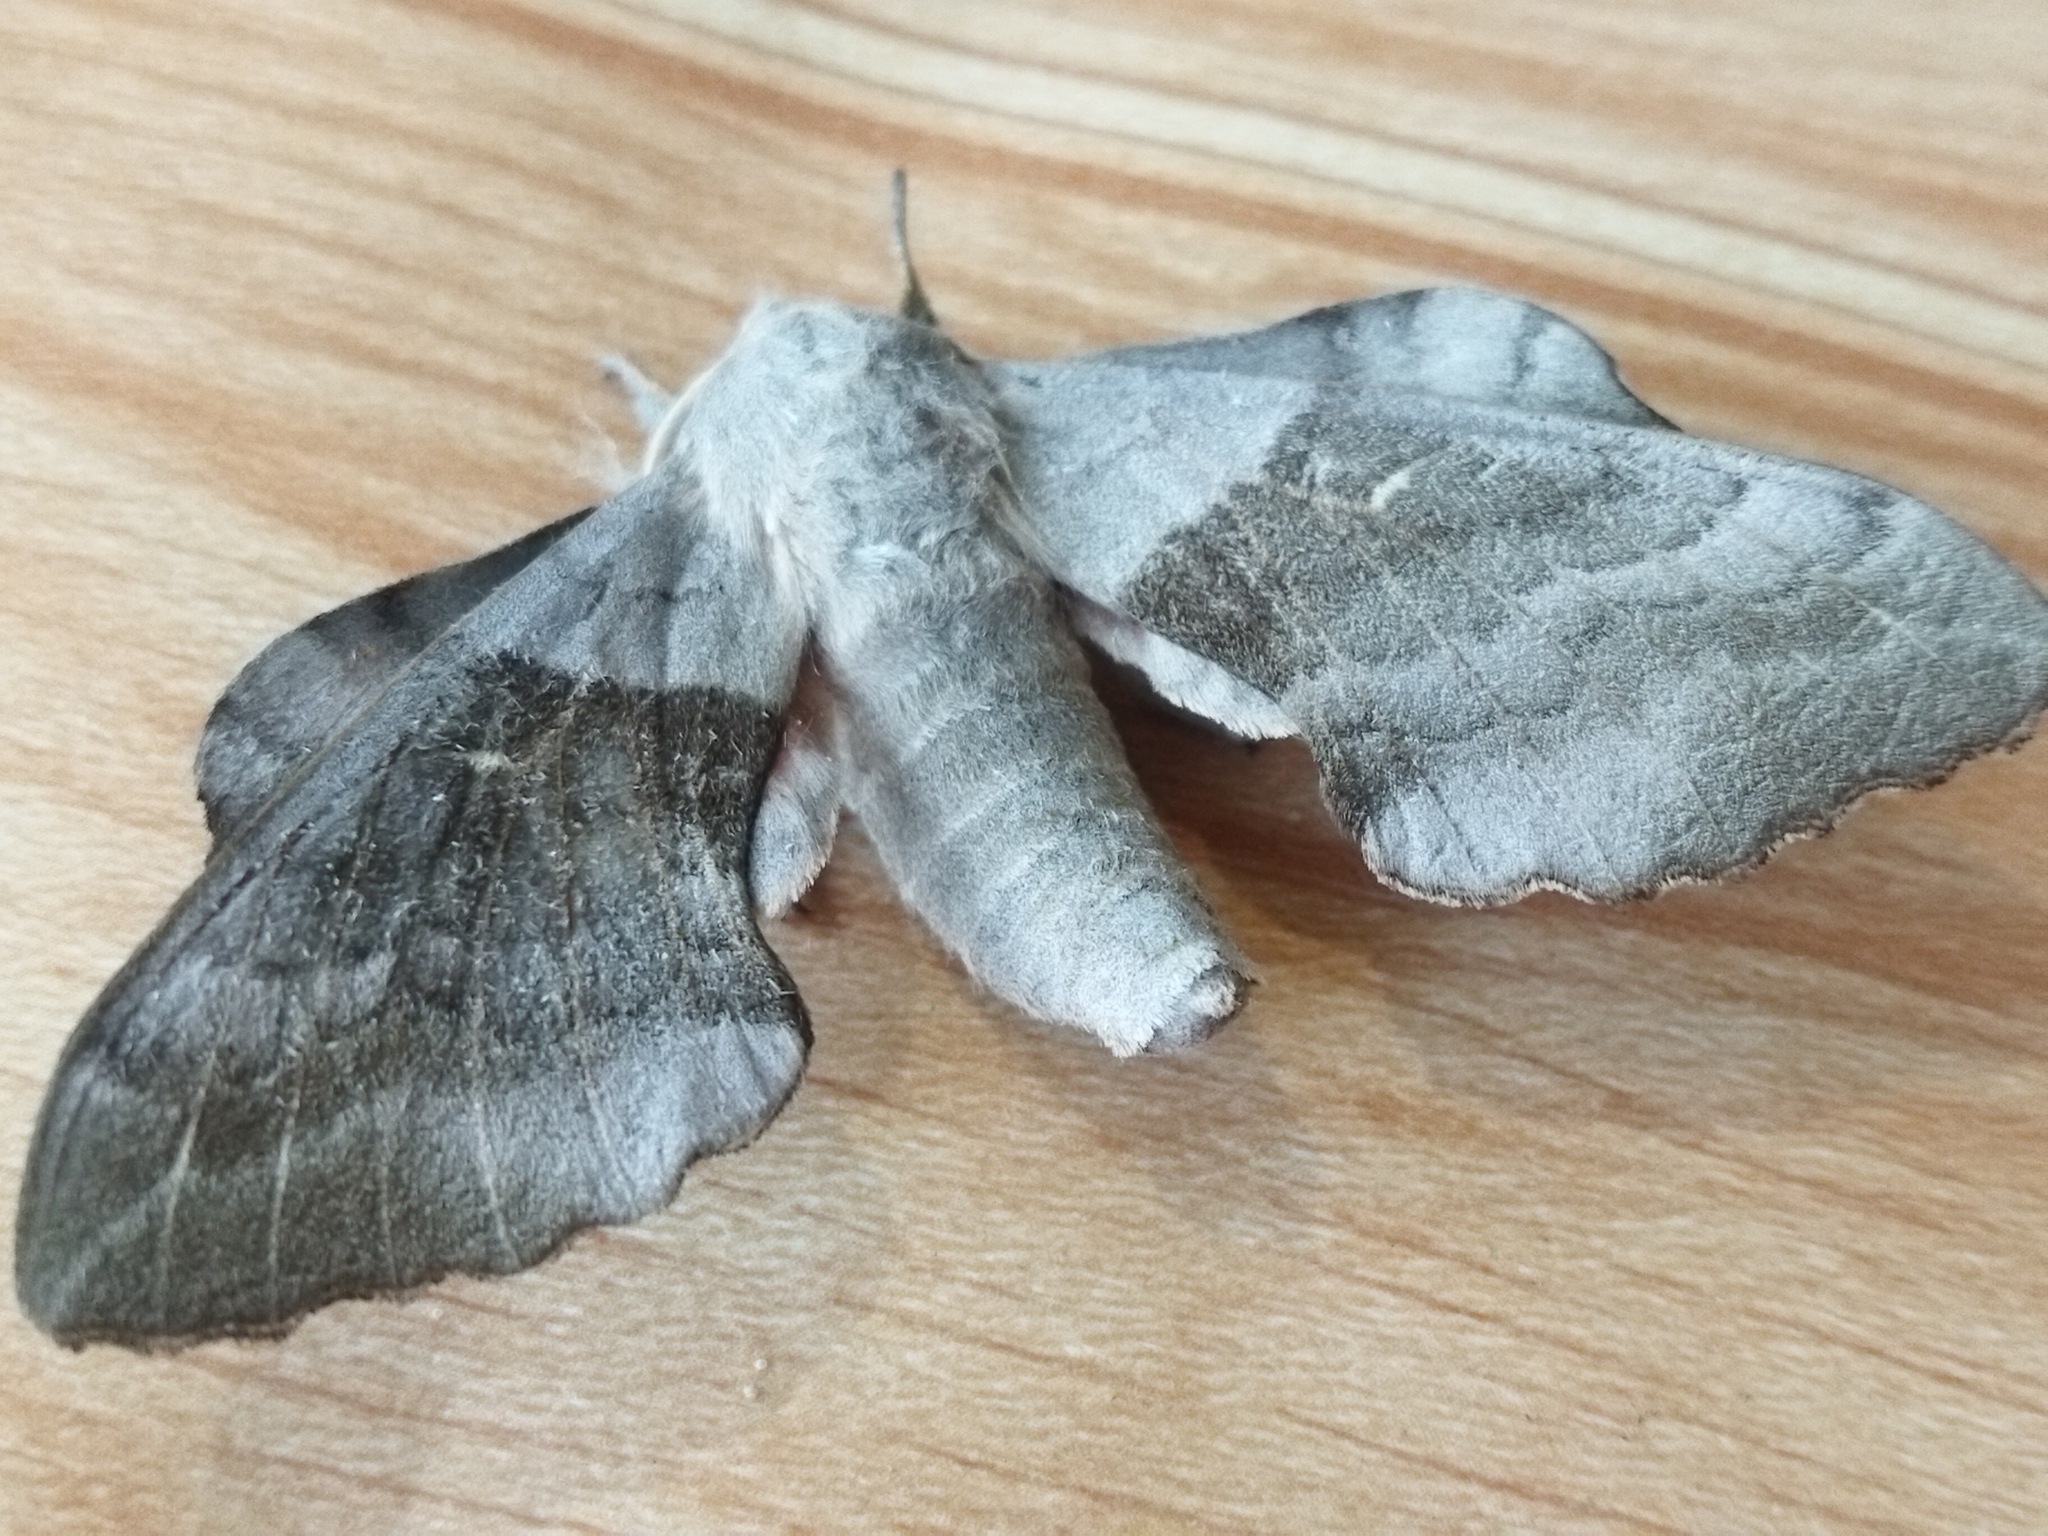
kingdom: Animalia
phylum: Arthropoda
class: Insecta
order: Lepidoptera
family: Sphingidae
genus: Laothoe
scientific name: Laothoe populi
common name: Poplar hawk-moth
